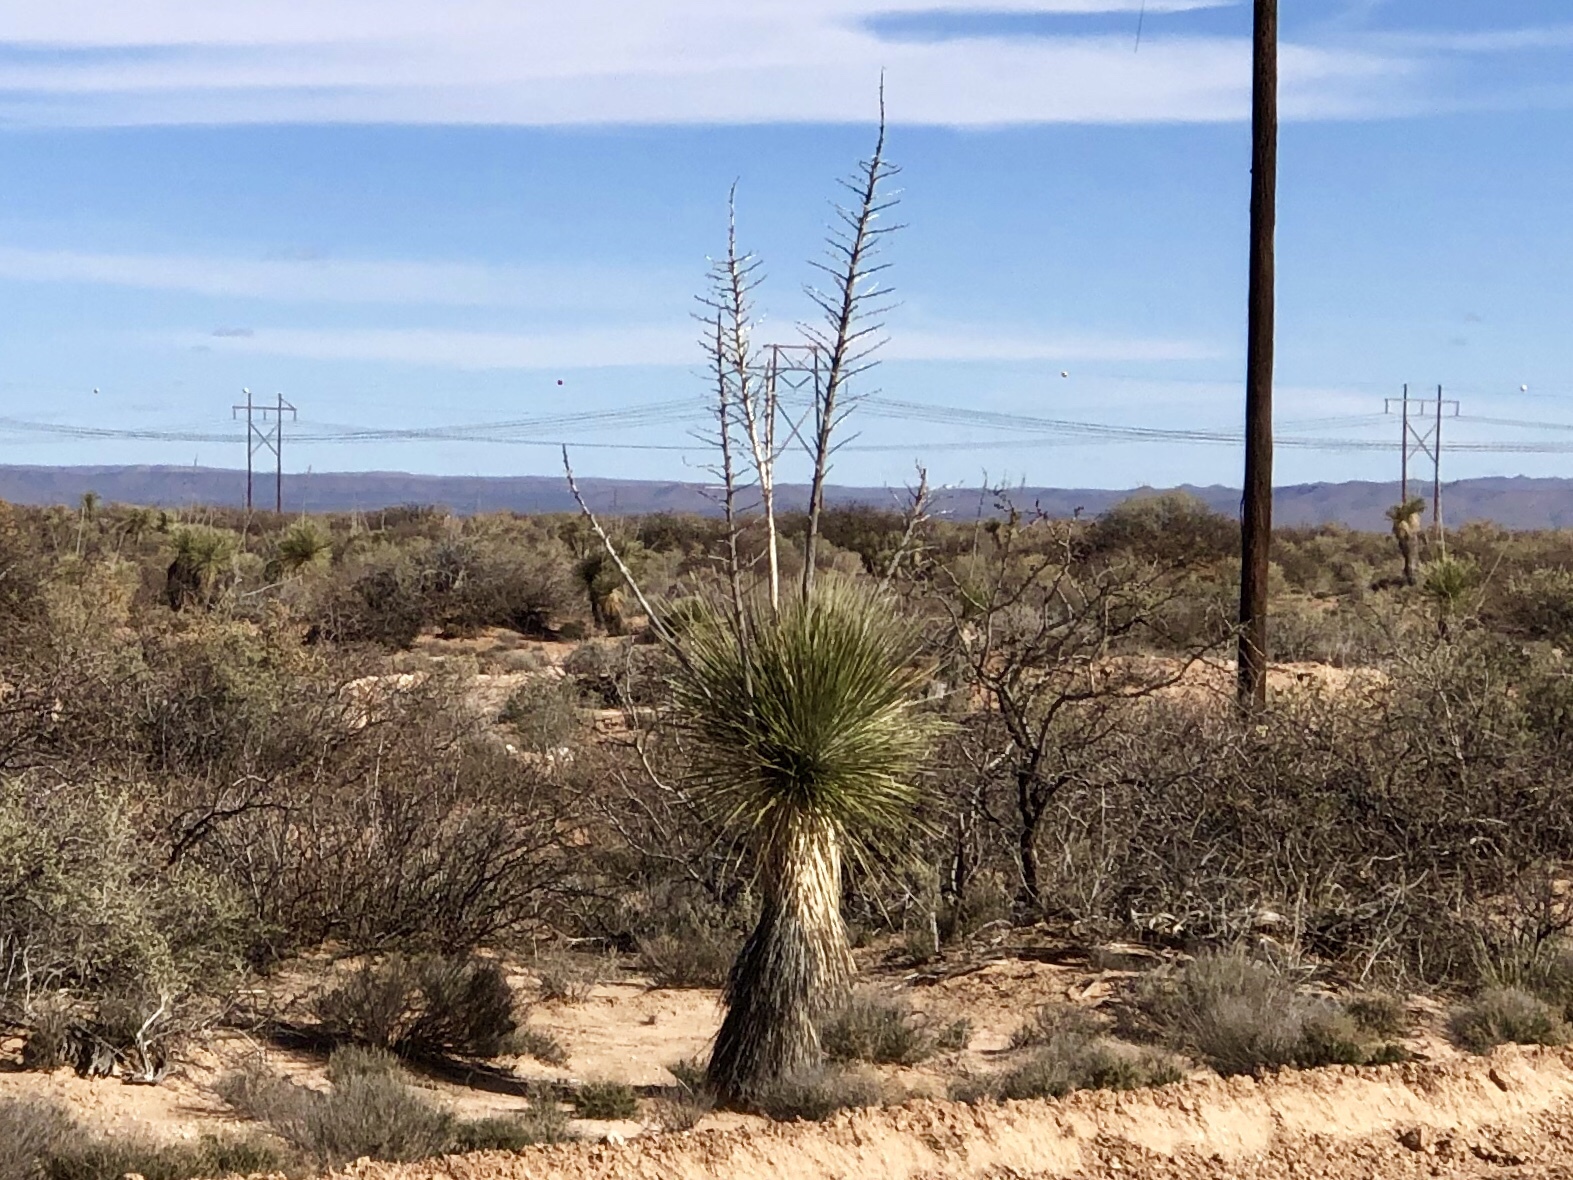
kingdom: Plantae
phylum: Tracheophyta
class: Liliopsida
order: Asparagales
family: Asparagaceae
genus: Yucca
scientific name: Yucca elata
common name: Palmella
